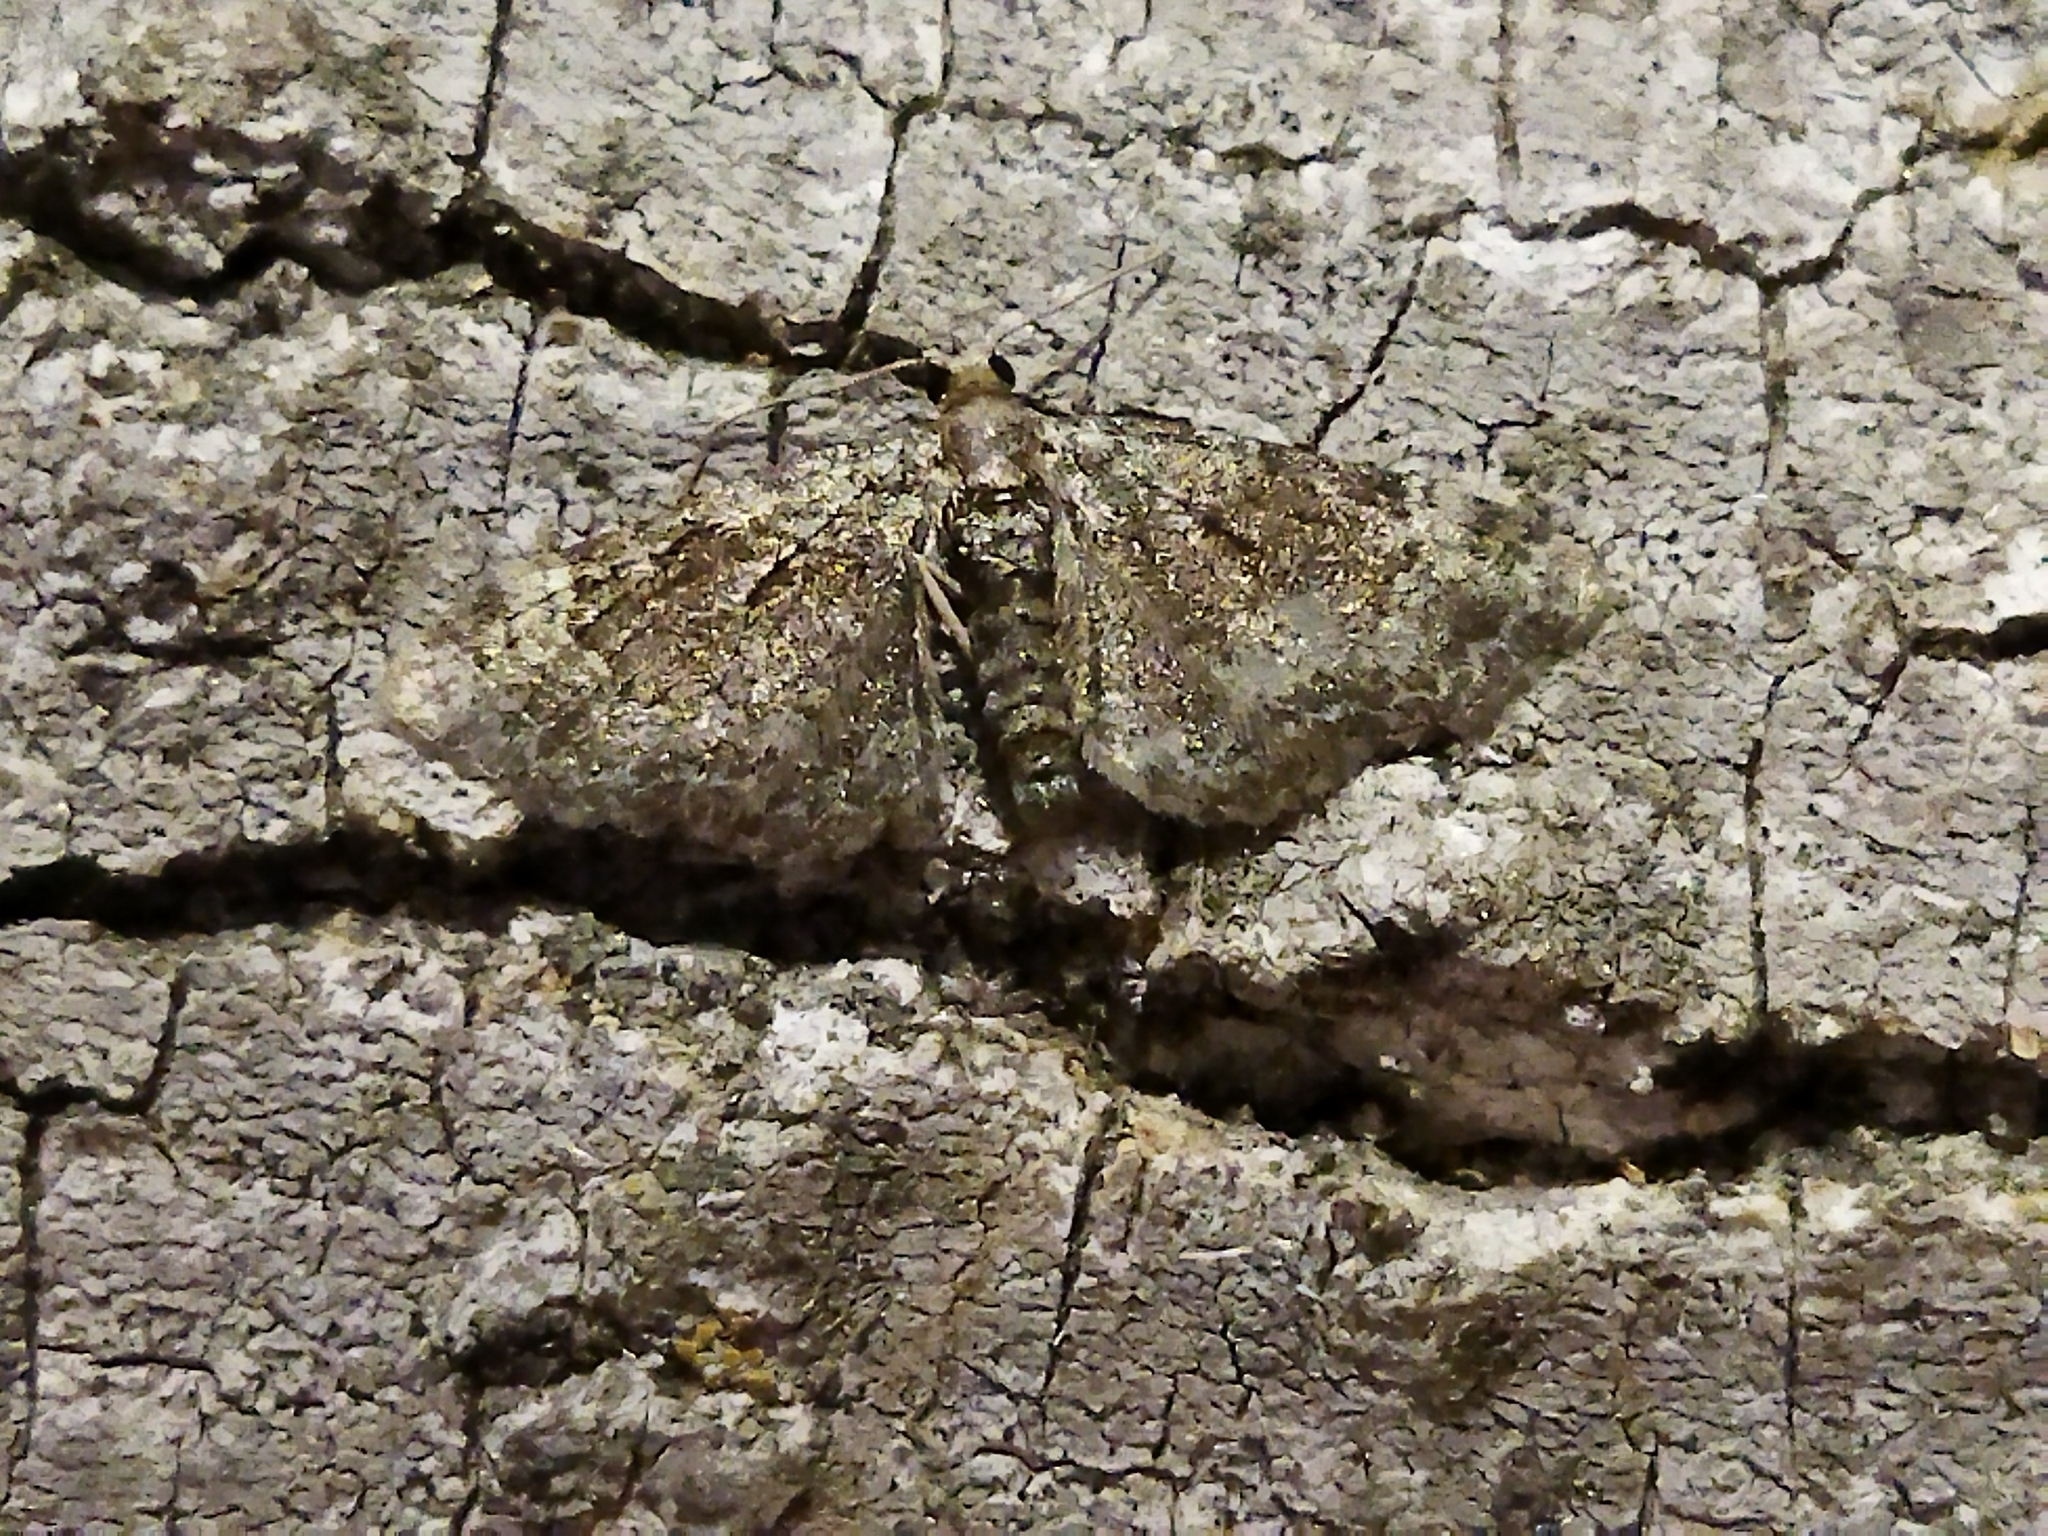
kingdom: Animalia
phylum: Arthropoda
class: Insecta
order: Lepidoptera
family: Geometridae
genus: Pasiphila
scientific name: Pasiphila
